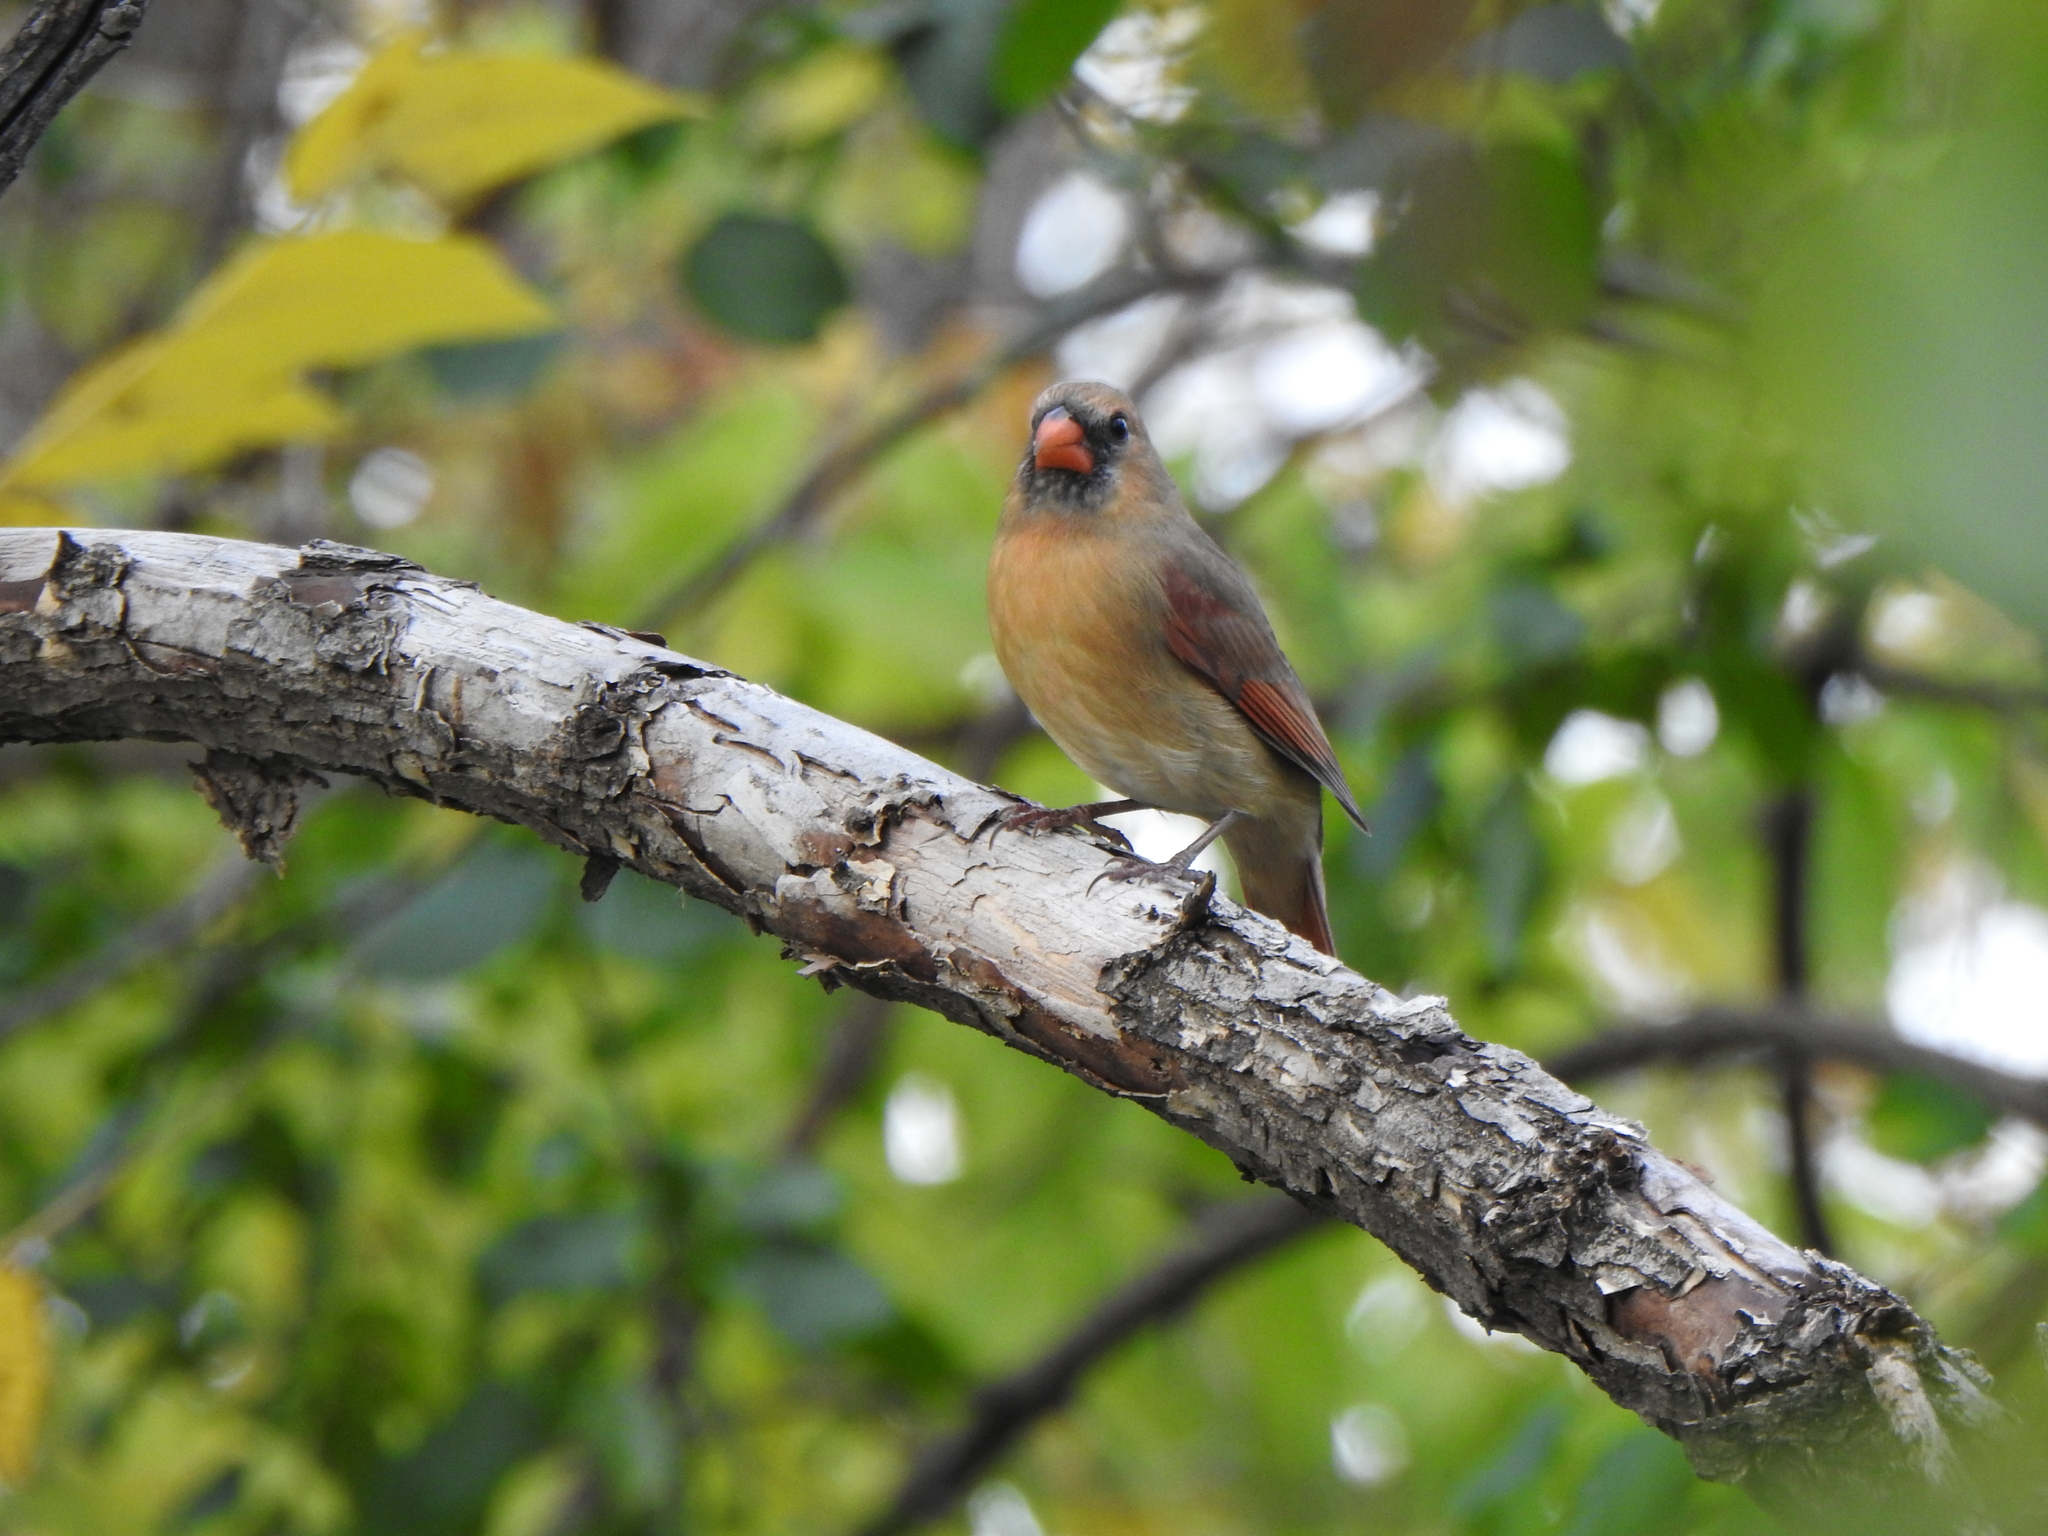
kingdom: Animalia
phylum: Chordata
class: Aves
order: Passeriformes
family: Cardinalidae
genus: Cardinalis
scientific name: Cardinalis cardinalis
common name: Northern cardinal
